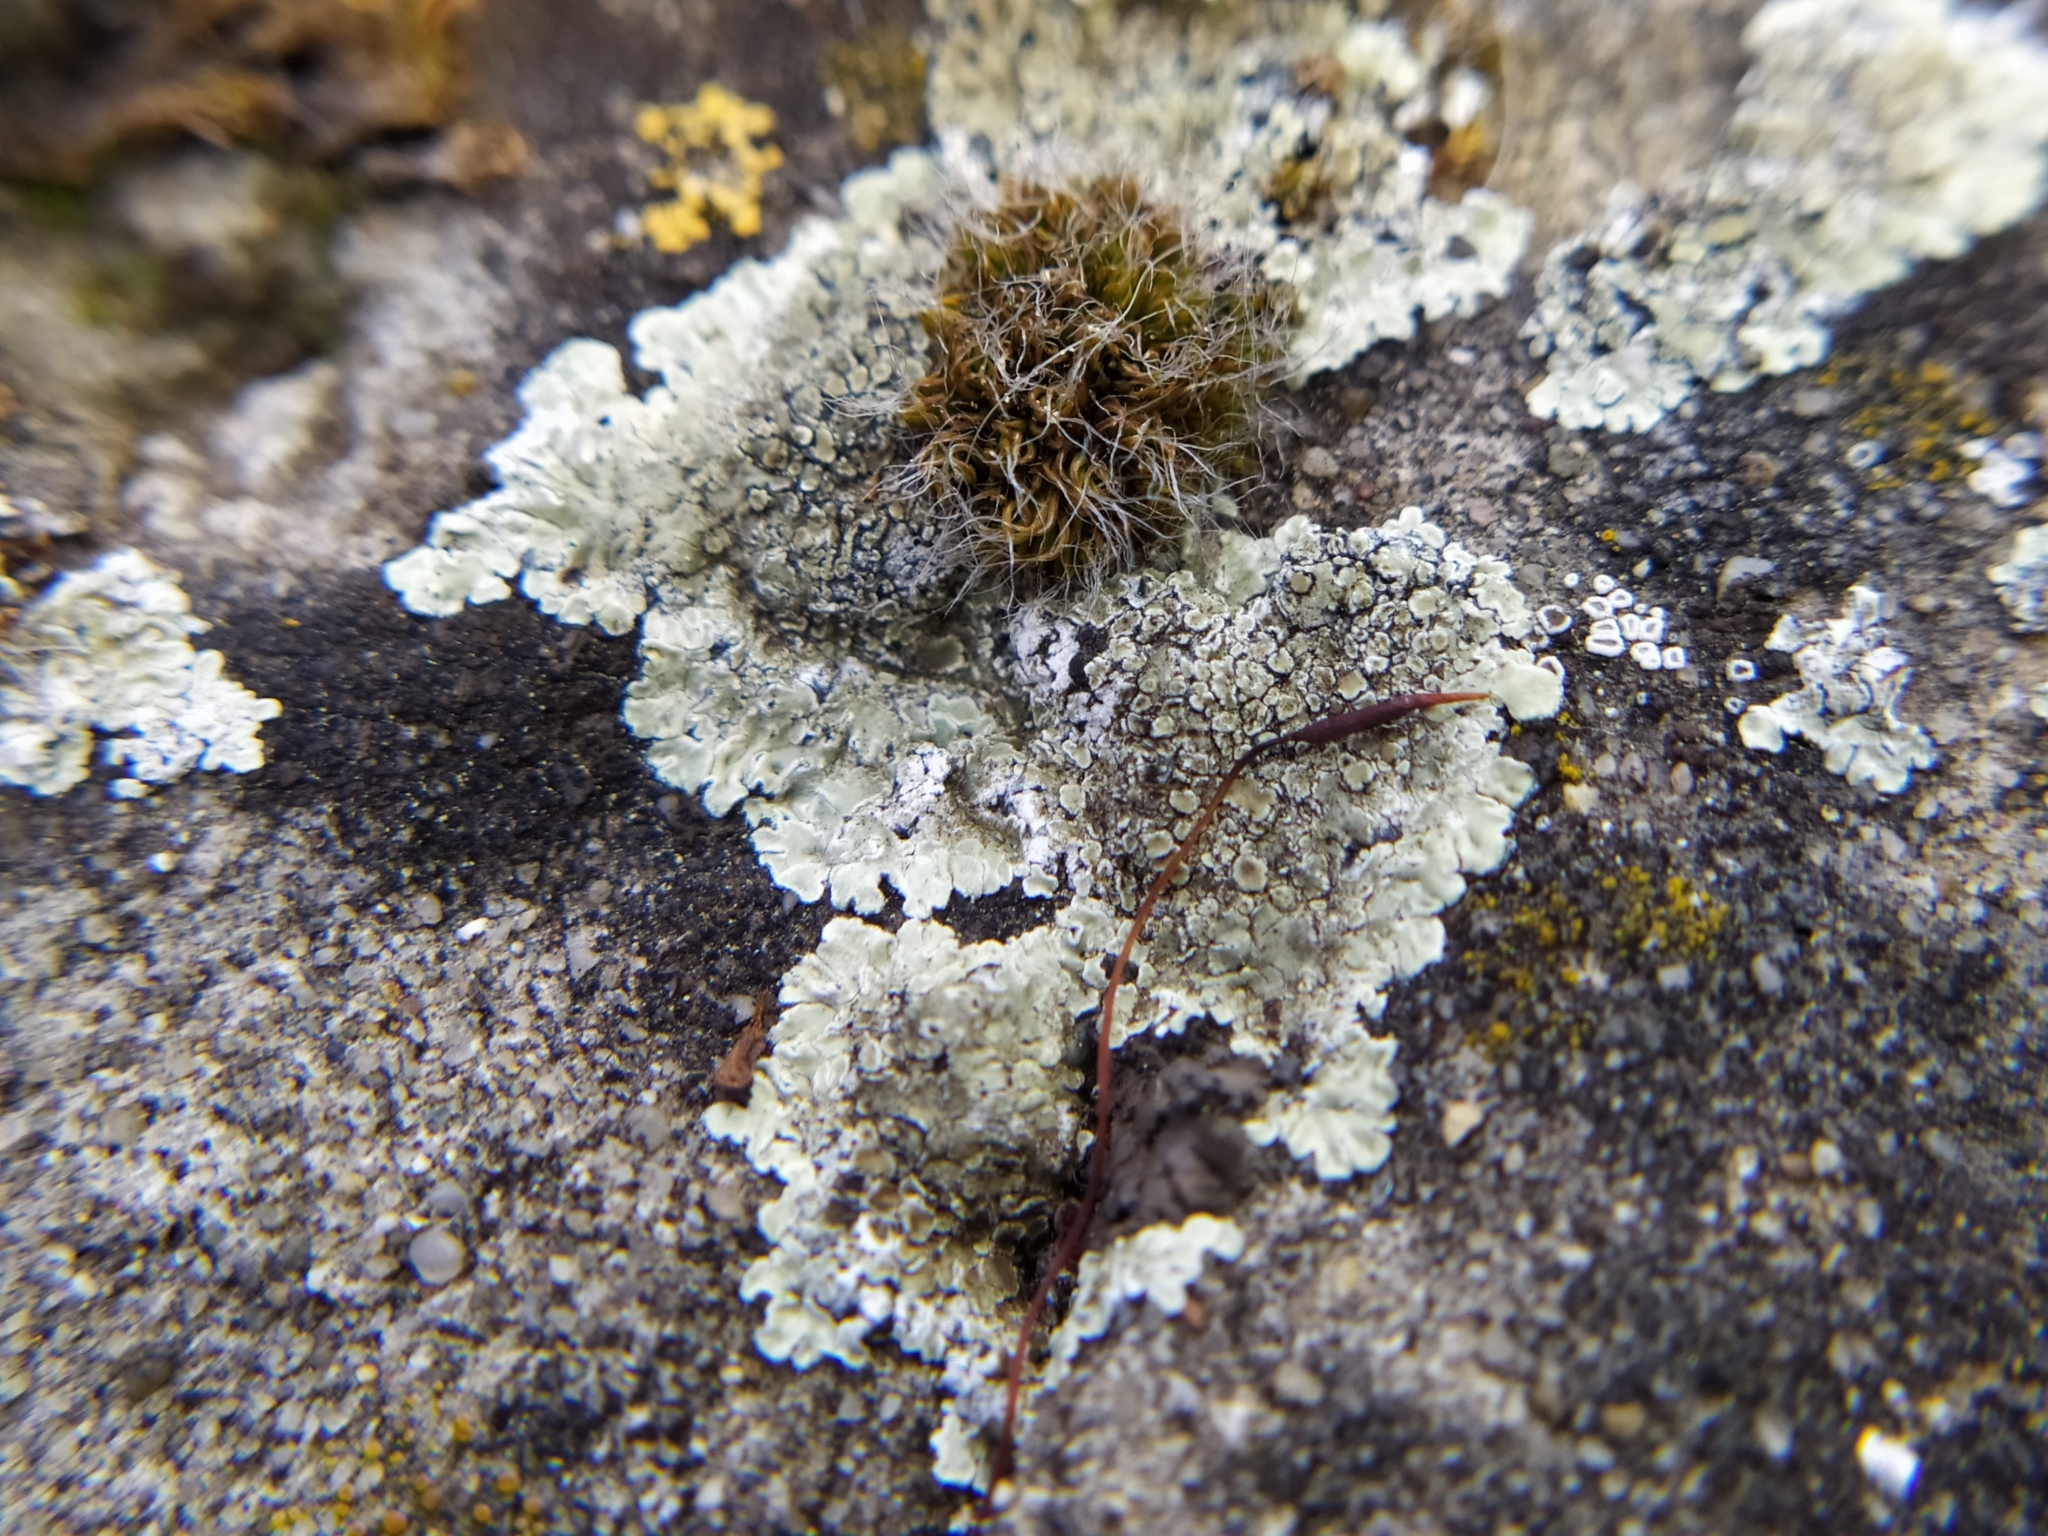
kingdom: Fungi
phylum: Ascomycota
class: Lecanoromycetes
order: Lecanorales
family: Lecanoraceae
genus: Protoparmeliopsis
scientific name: Protoparmeliopsis muralis
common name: Stonewall rim lichen
